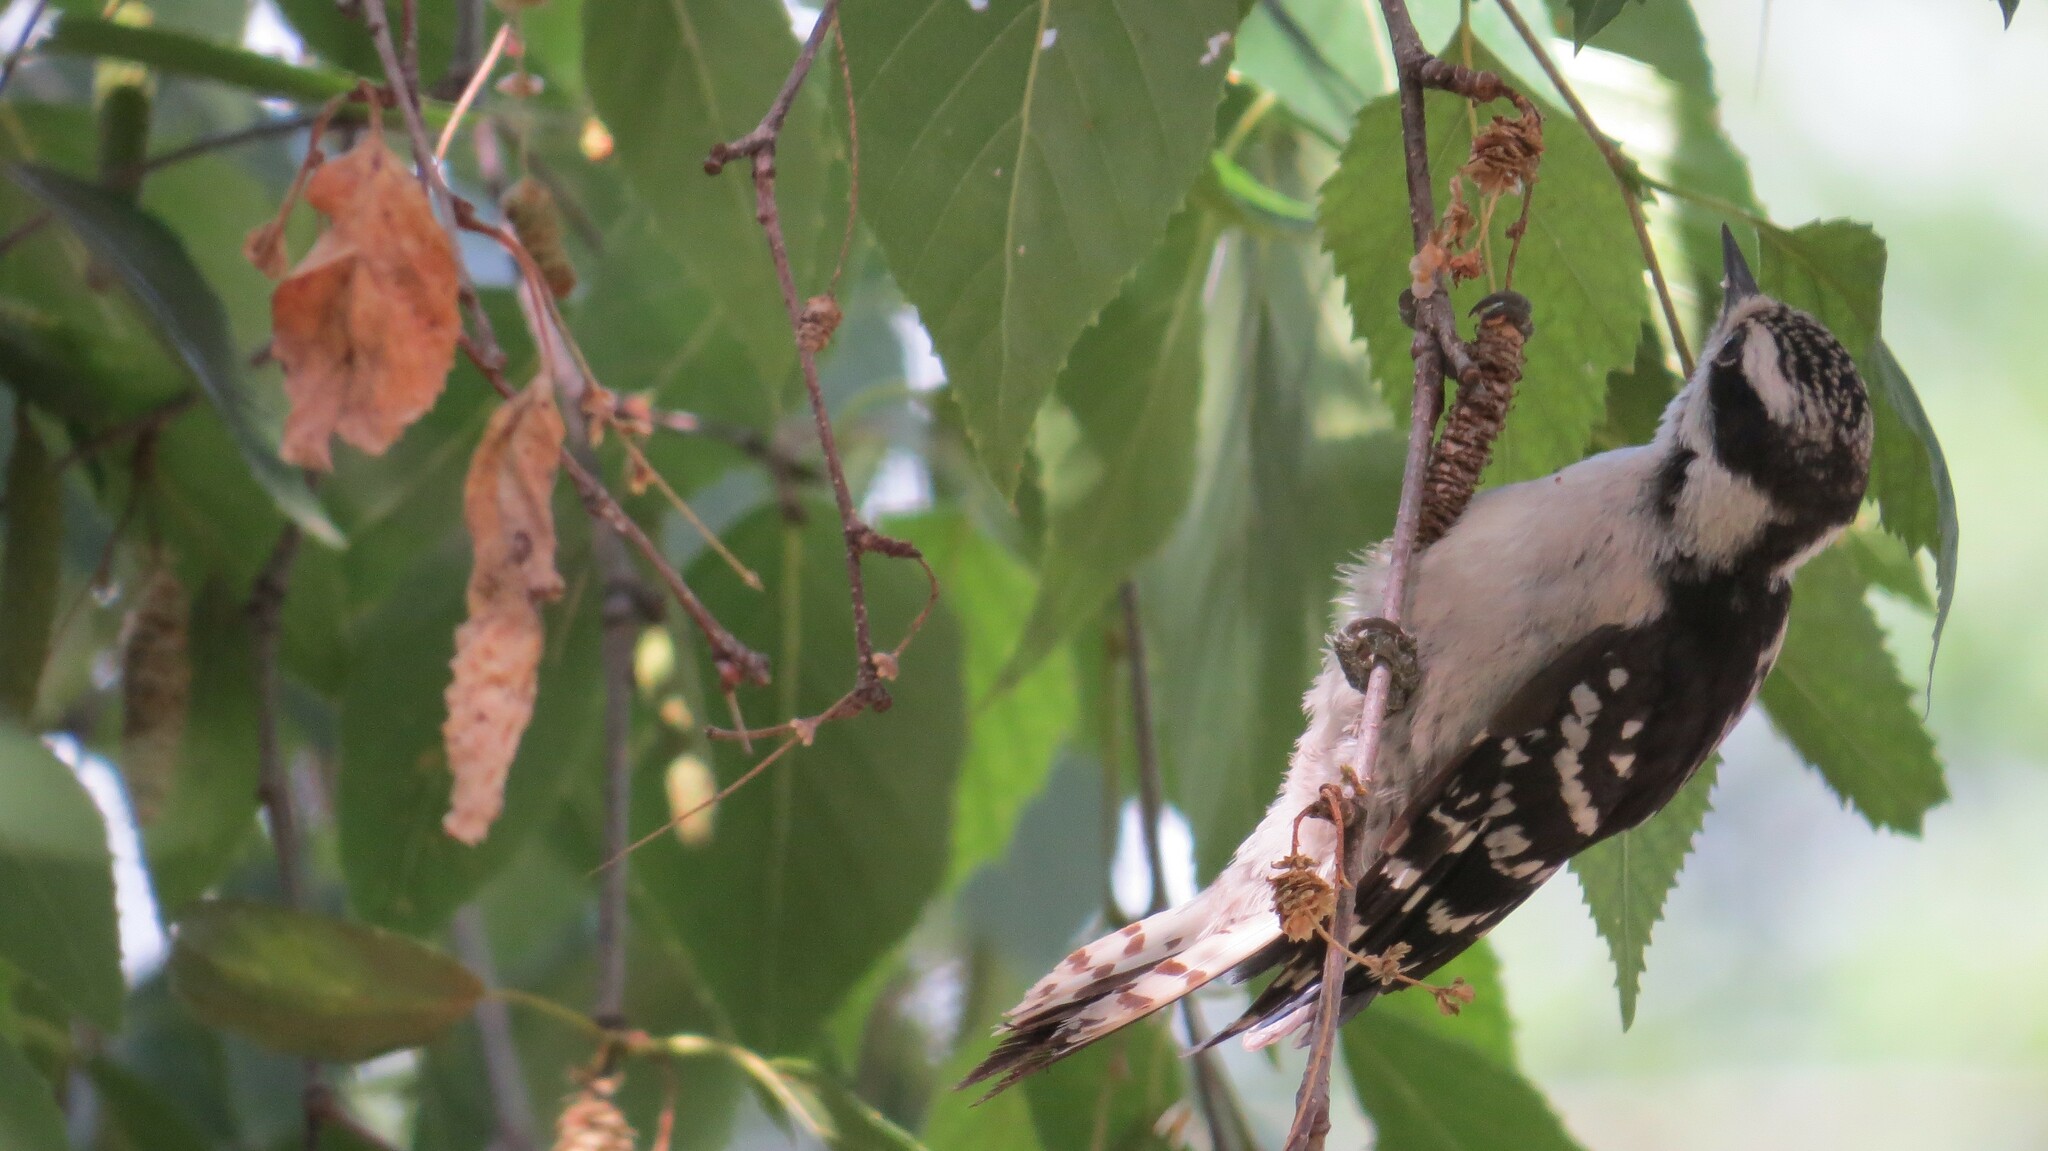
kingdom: Animalia
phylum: Chordata
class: Aves
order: Piciformes
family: Picidae
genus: Dryobates
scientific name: Dryobates pubescens
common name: Downy woodpecker
